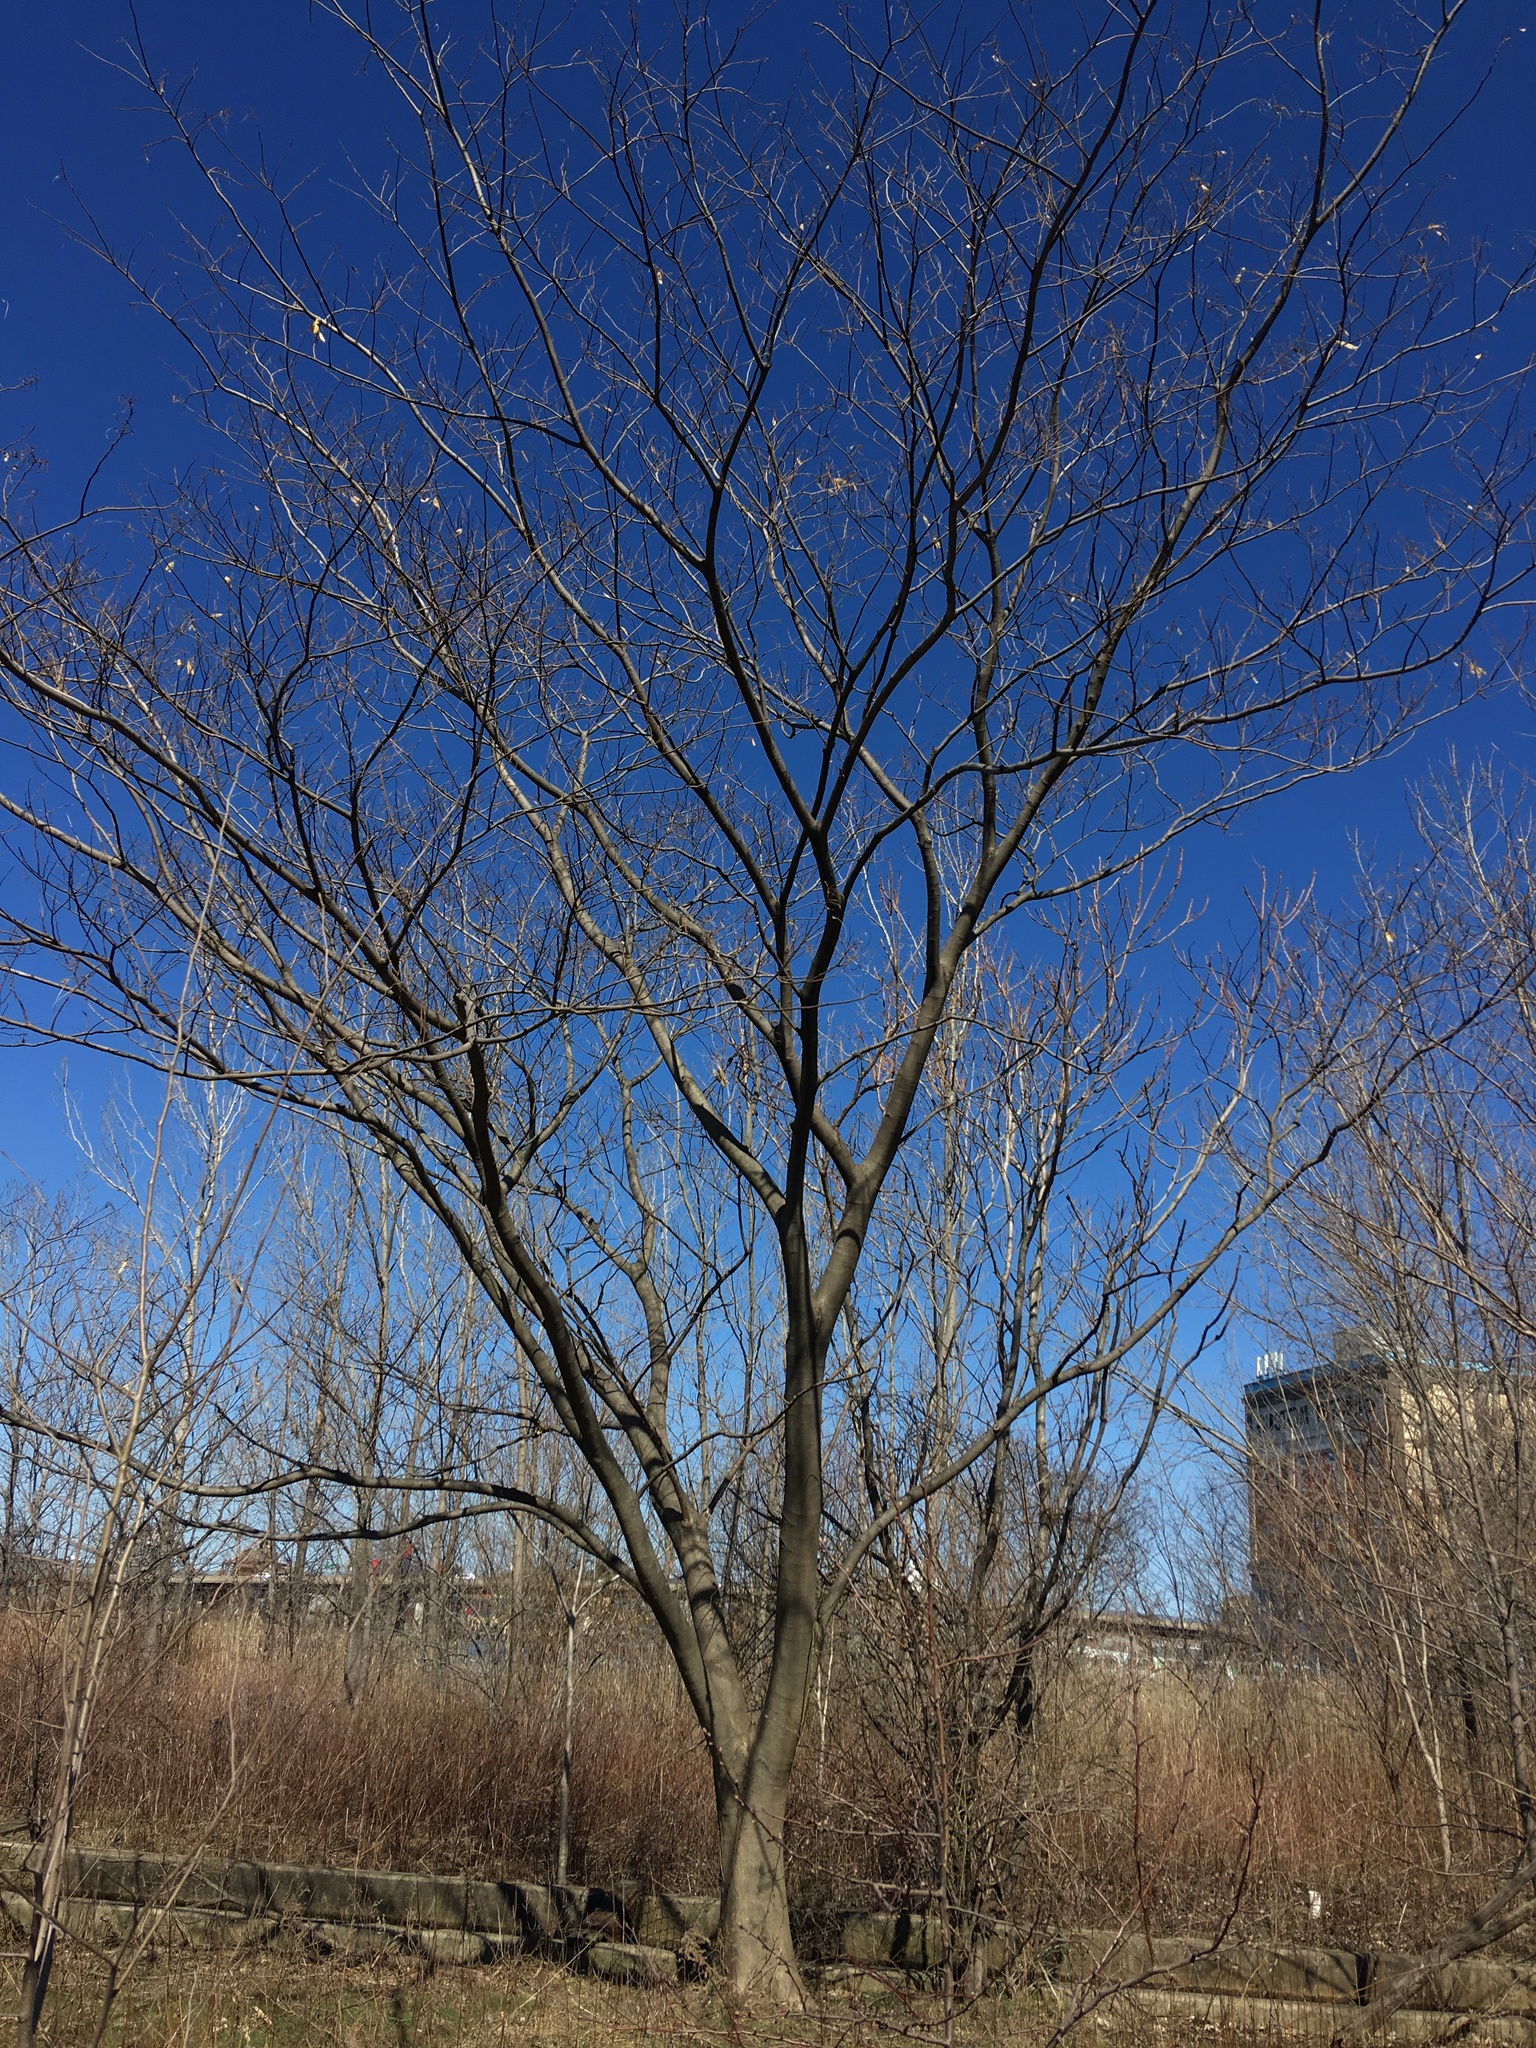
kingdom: Plantae
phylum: Tracheophyta
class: Magnoliopsida
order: Fabales
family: Fabaceae
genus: Albizia
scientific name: Albizia julibrissin
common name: Silktree
